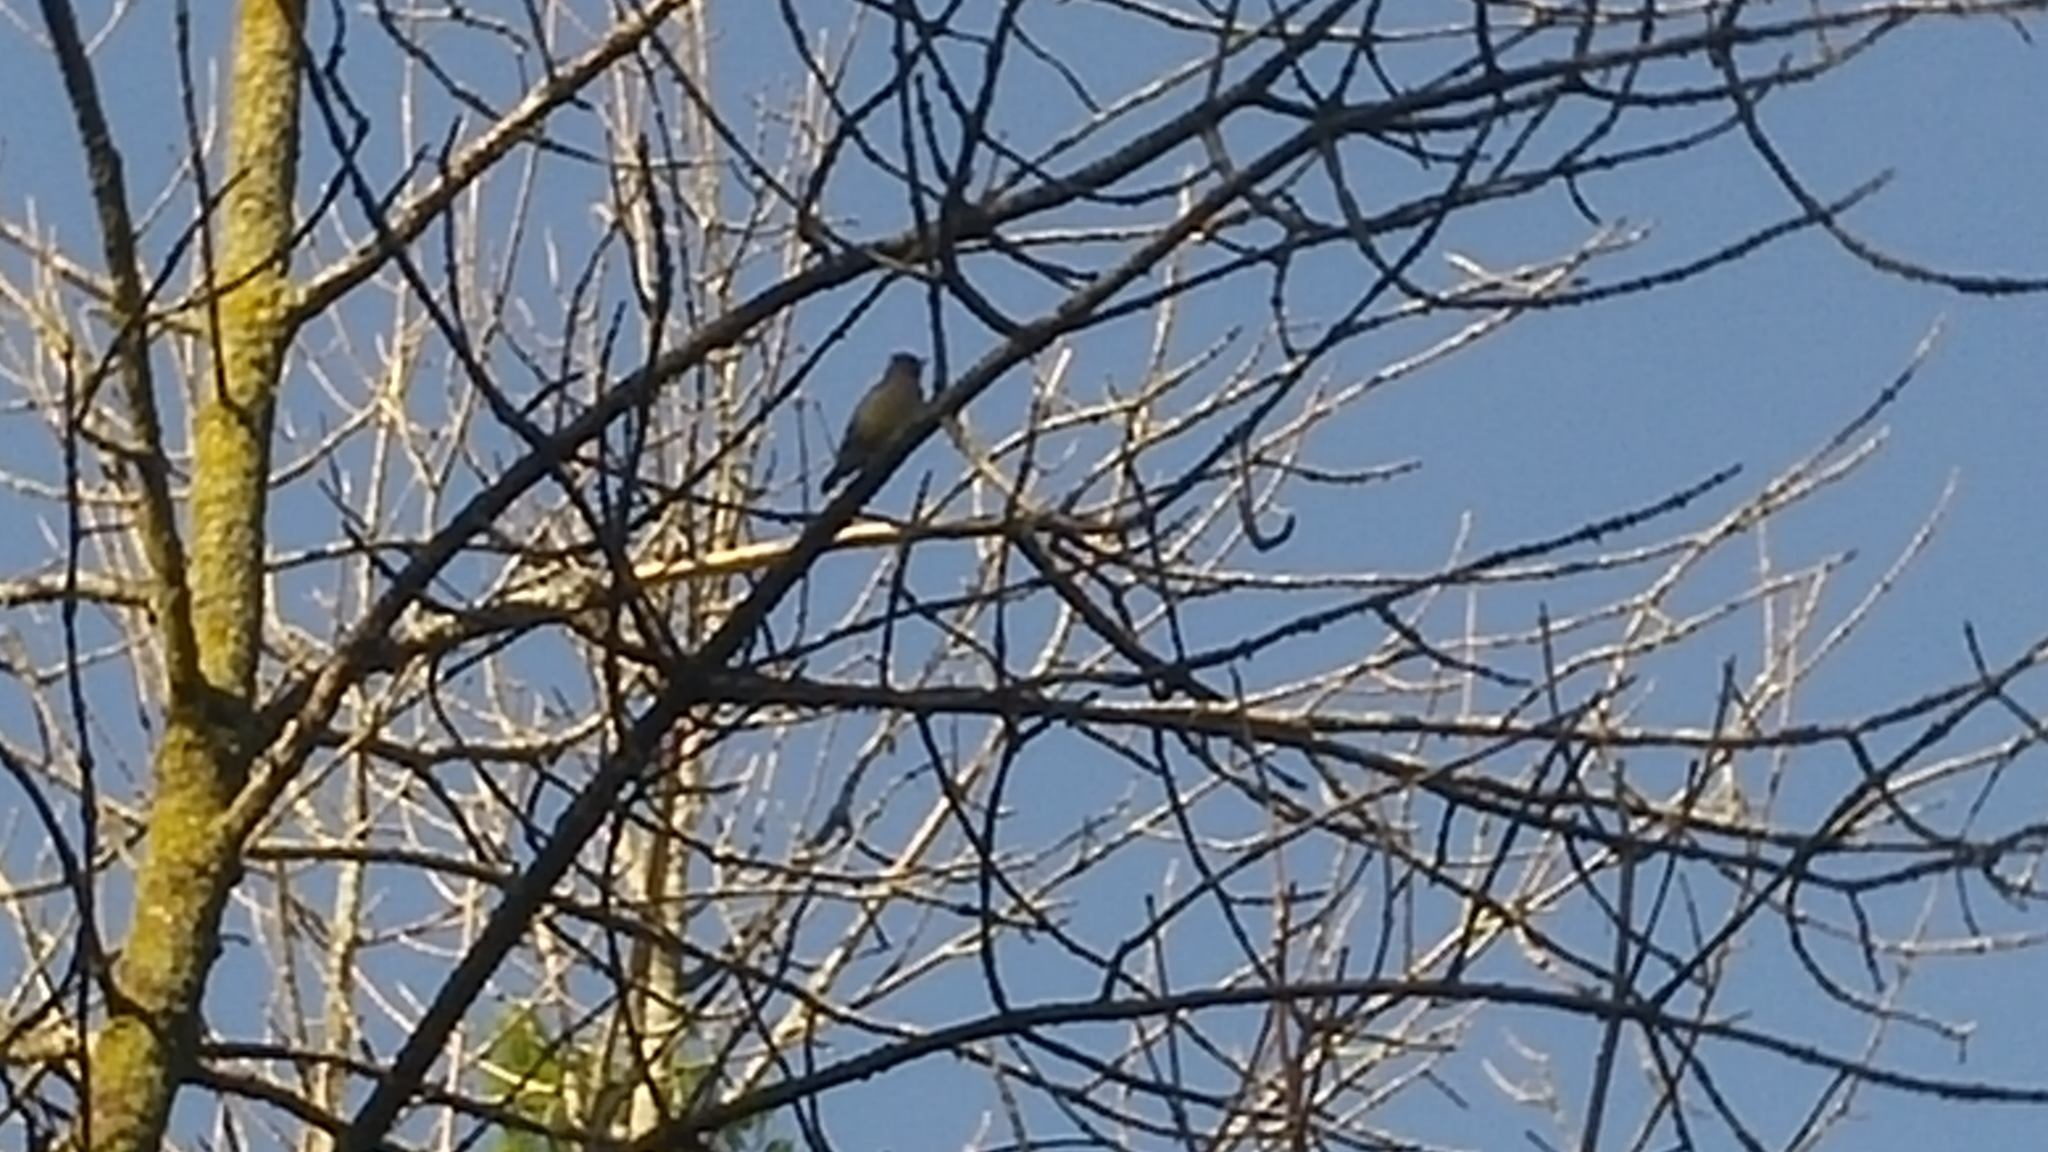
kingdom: Animalia
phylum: Chordata
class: Aves
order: Passeriformes
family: Bombycillidae
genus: Bombycilla
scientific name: Bombycilla cedrorum
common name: Cedar waxwing
